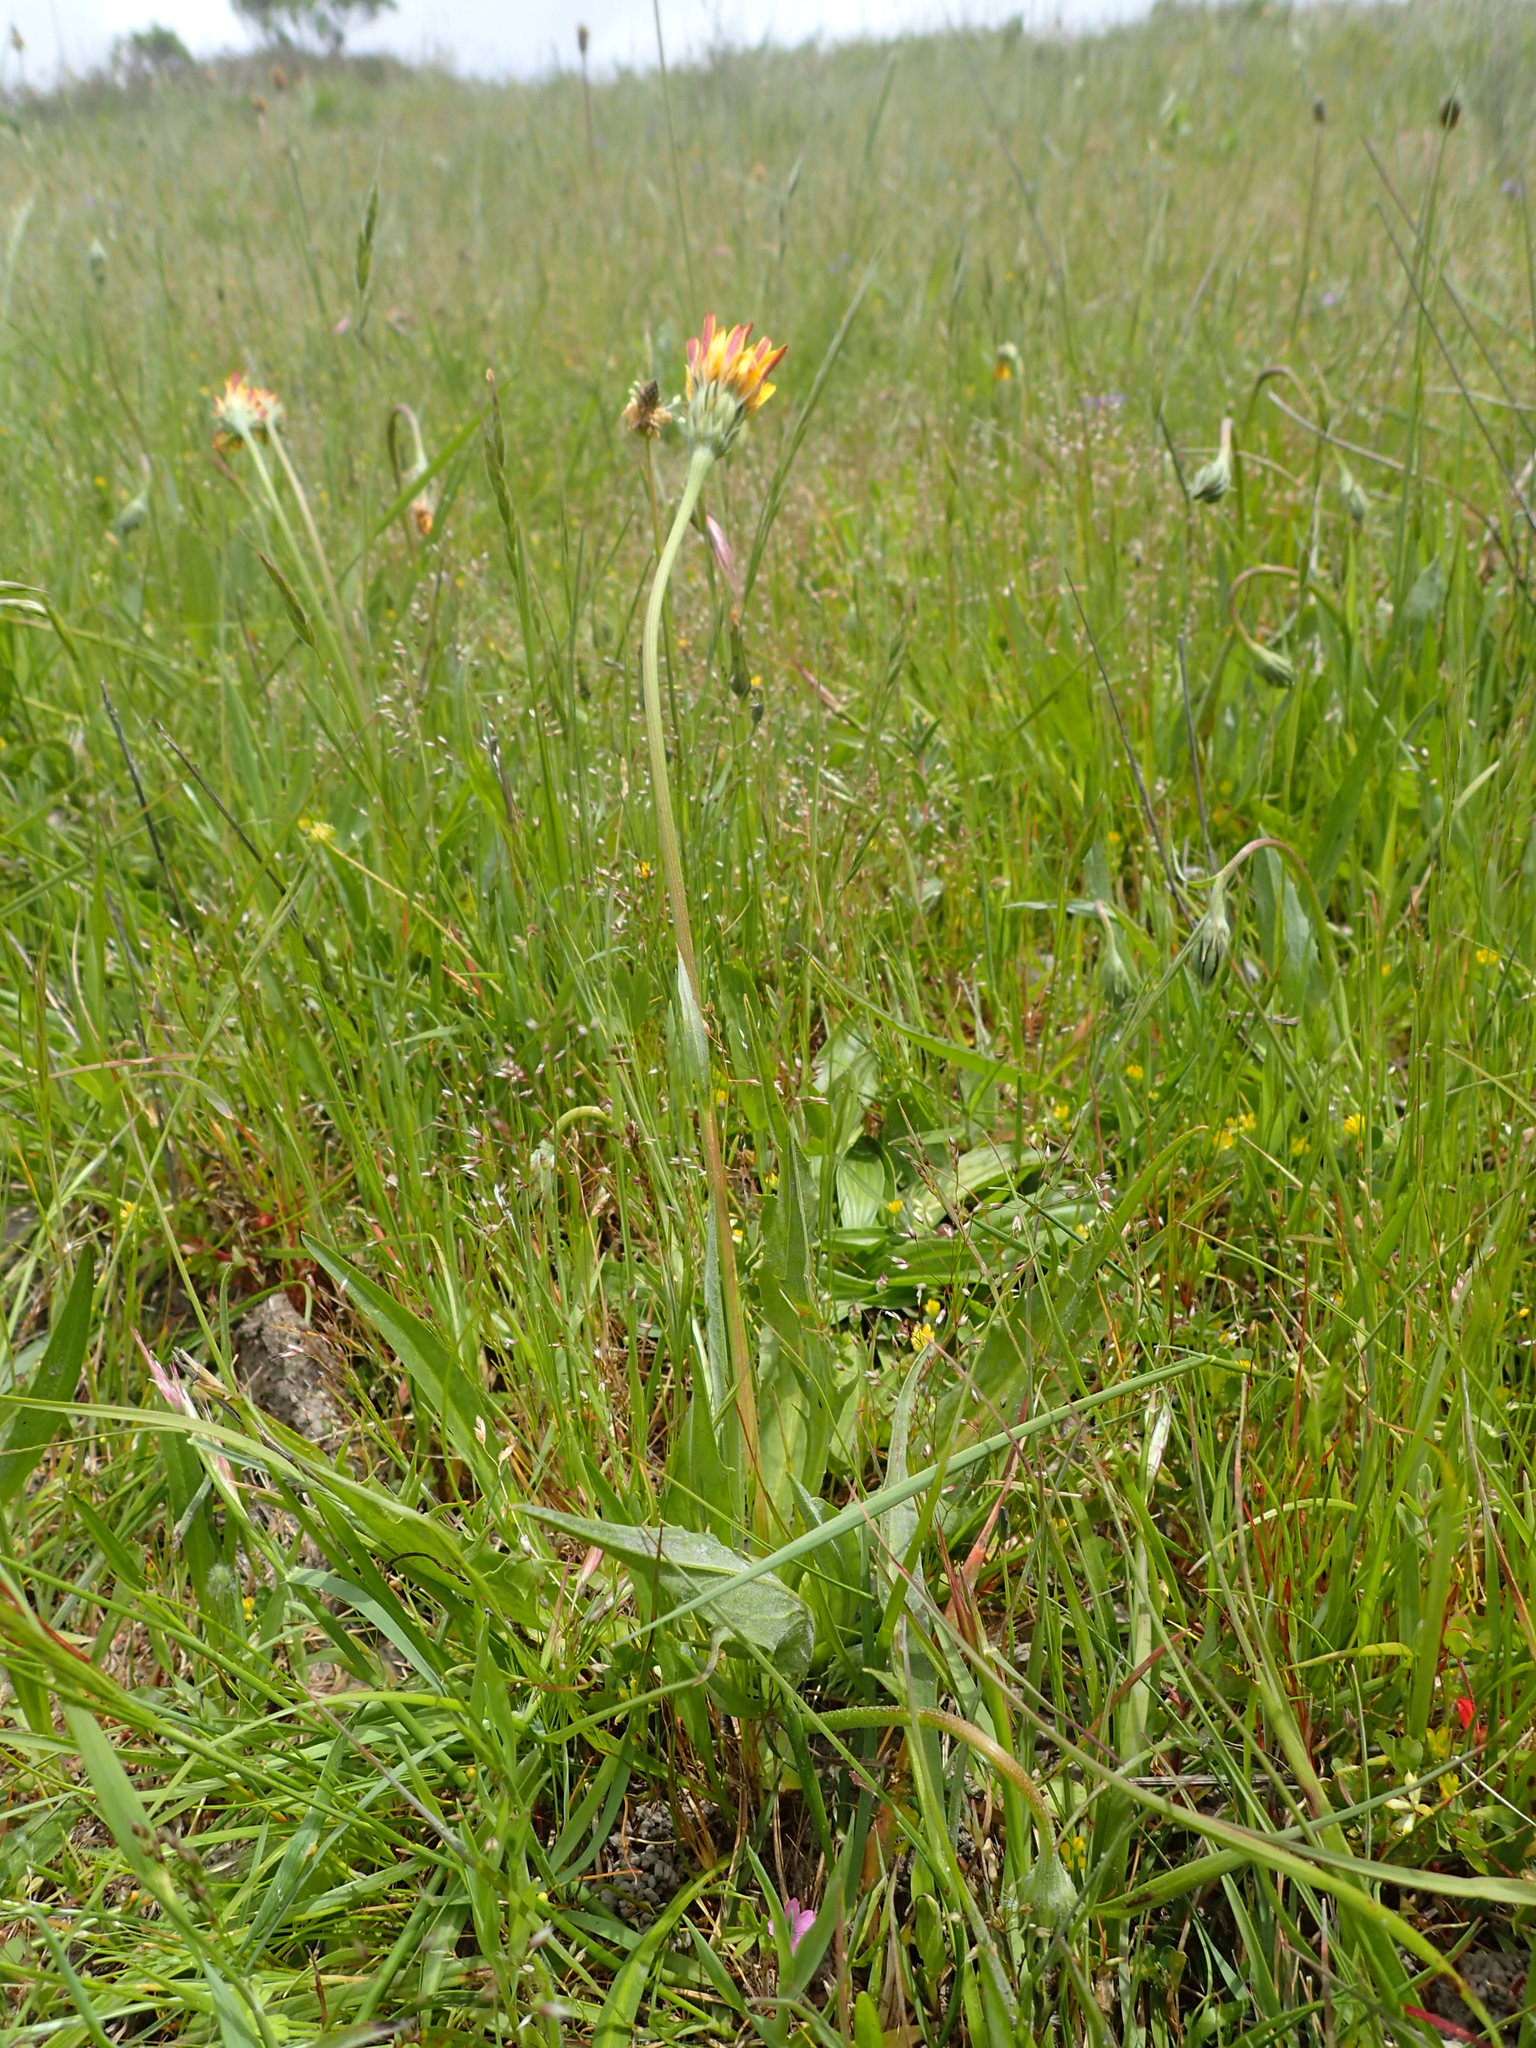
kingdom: Plantae
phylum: Tracheophyta
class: Magnoliopsida
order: Asterales
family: Asteraceae
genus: Microseris
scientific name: Microseris paludosa
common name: Marsh silverpuffs
